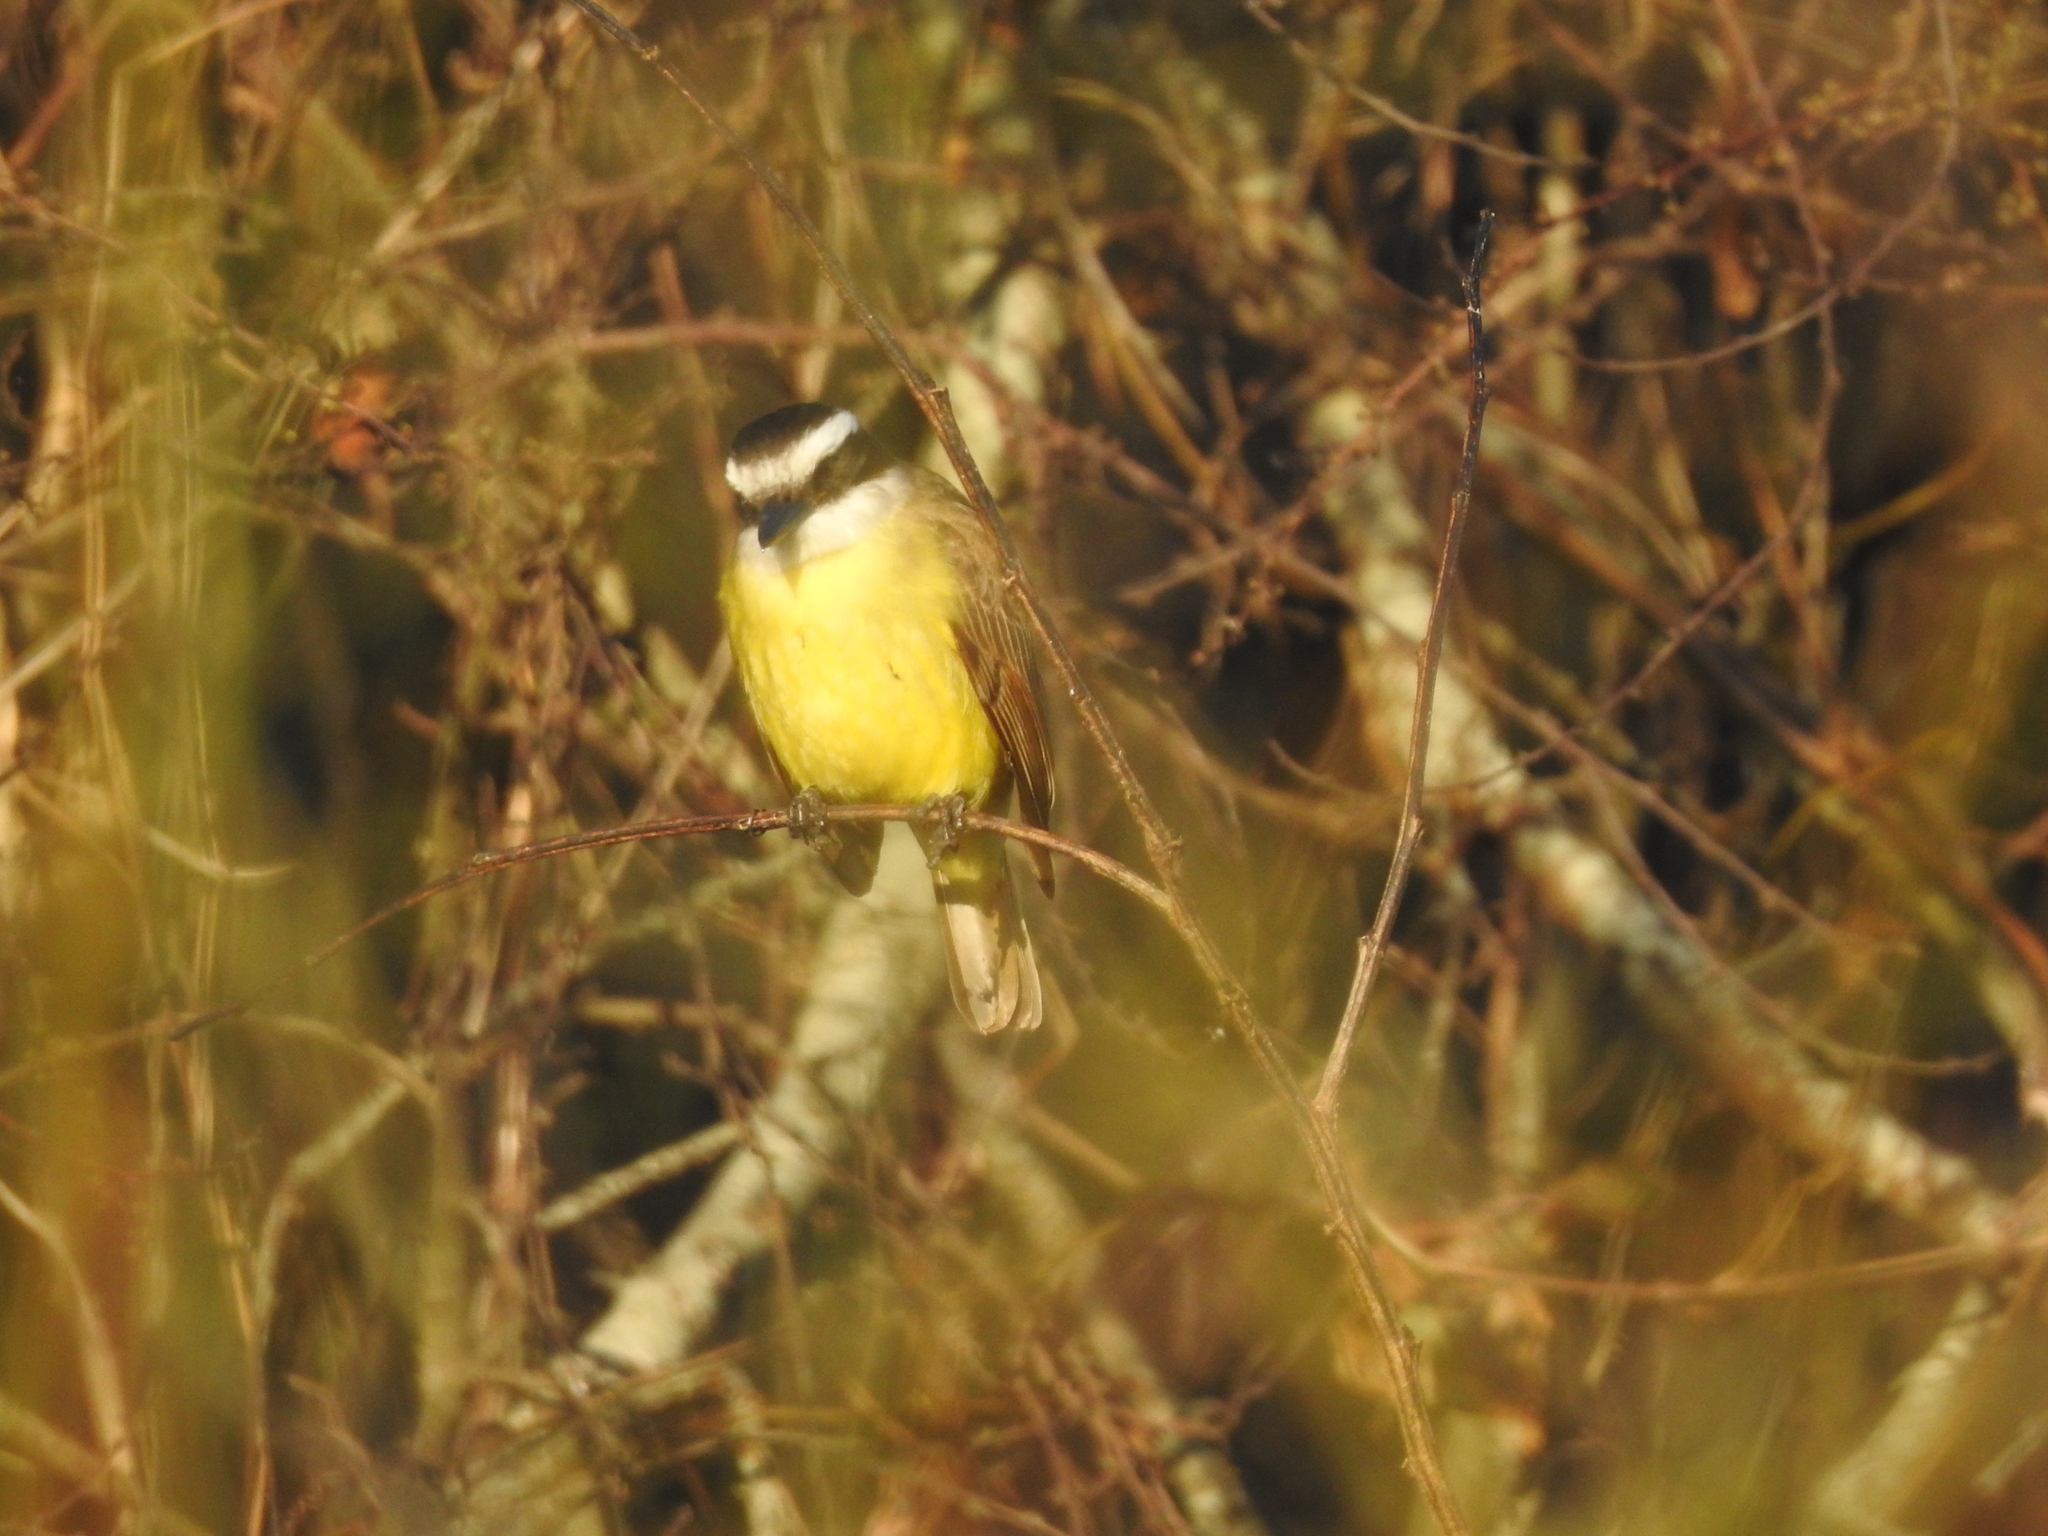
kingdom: Animalia
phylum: Chordata
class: Aves
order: Passeriformes
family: Tyrannidae
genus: Pitangus
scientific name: Pitangus sulphuratus
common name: Great kiskadee
